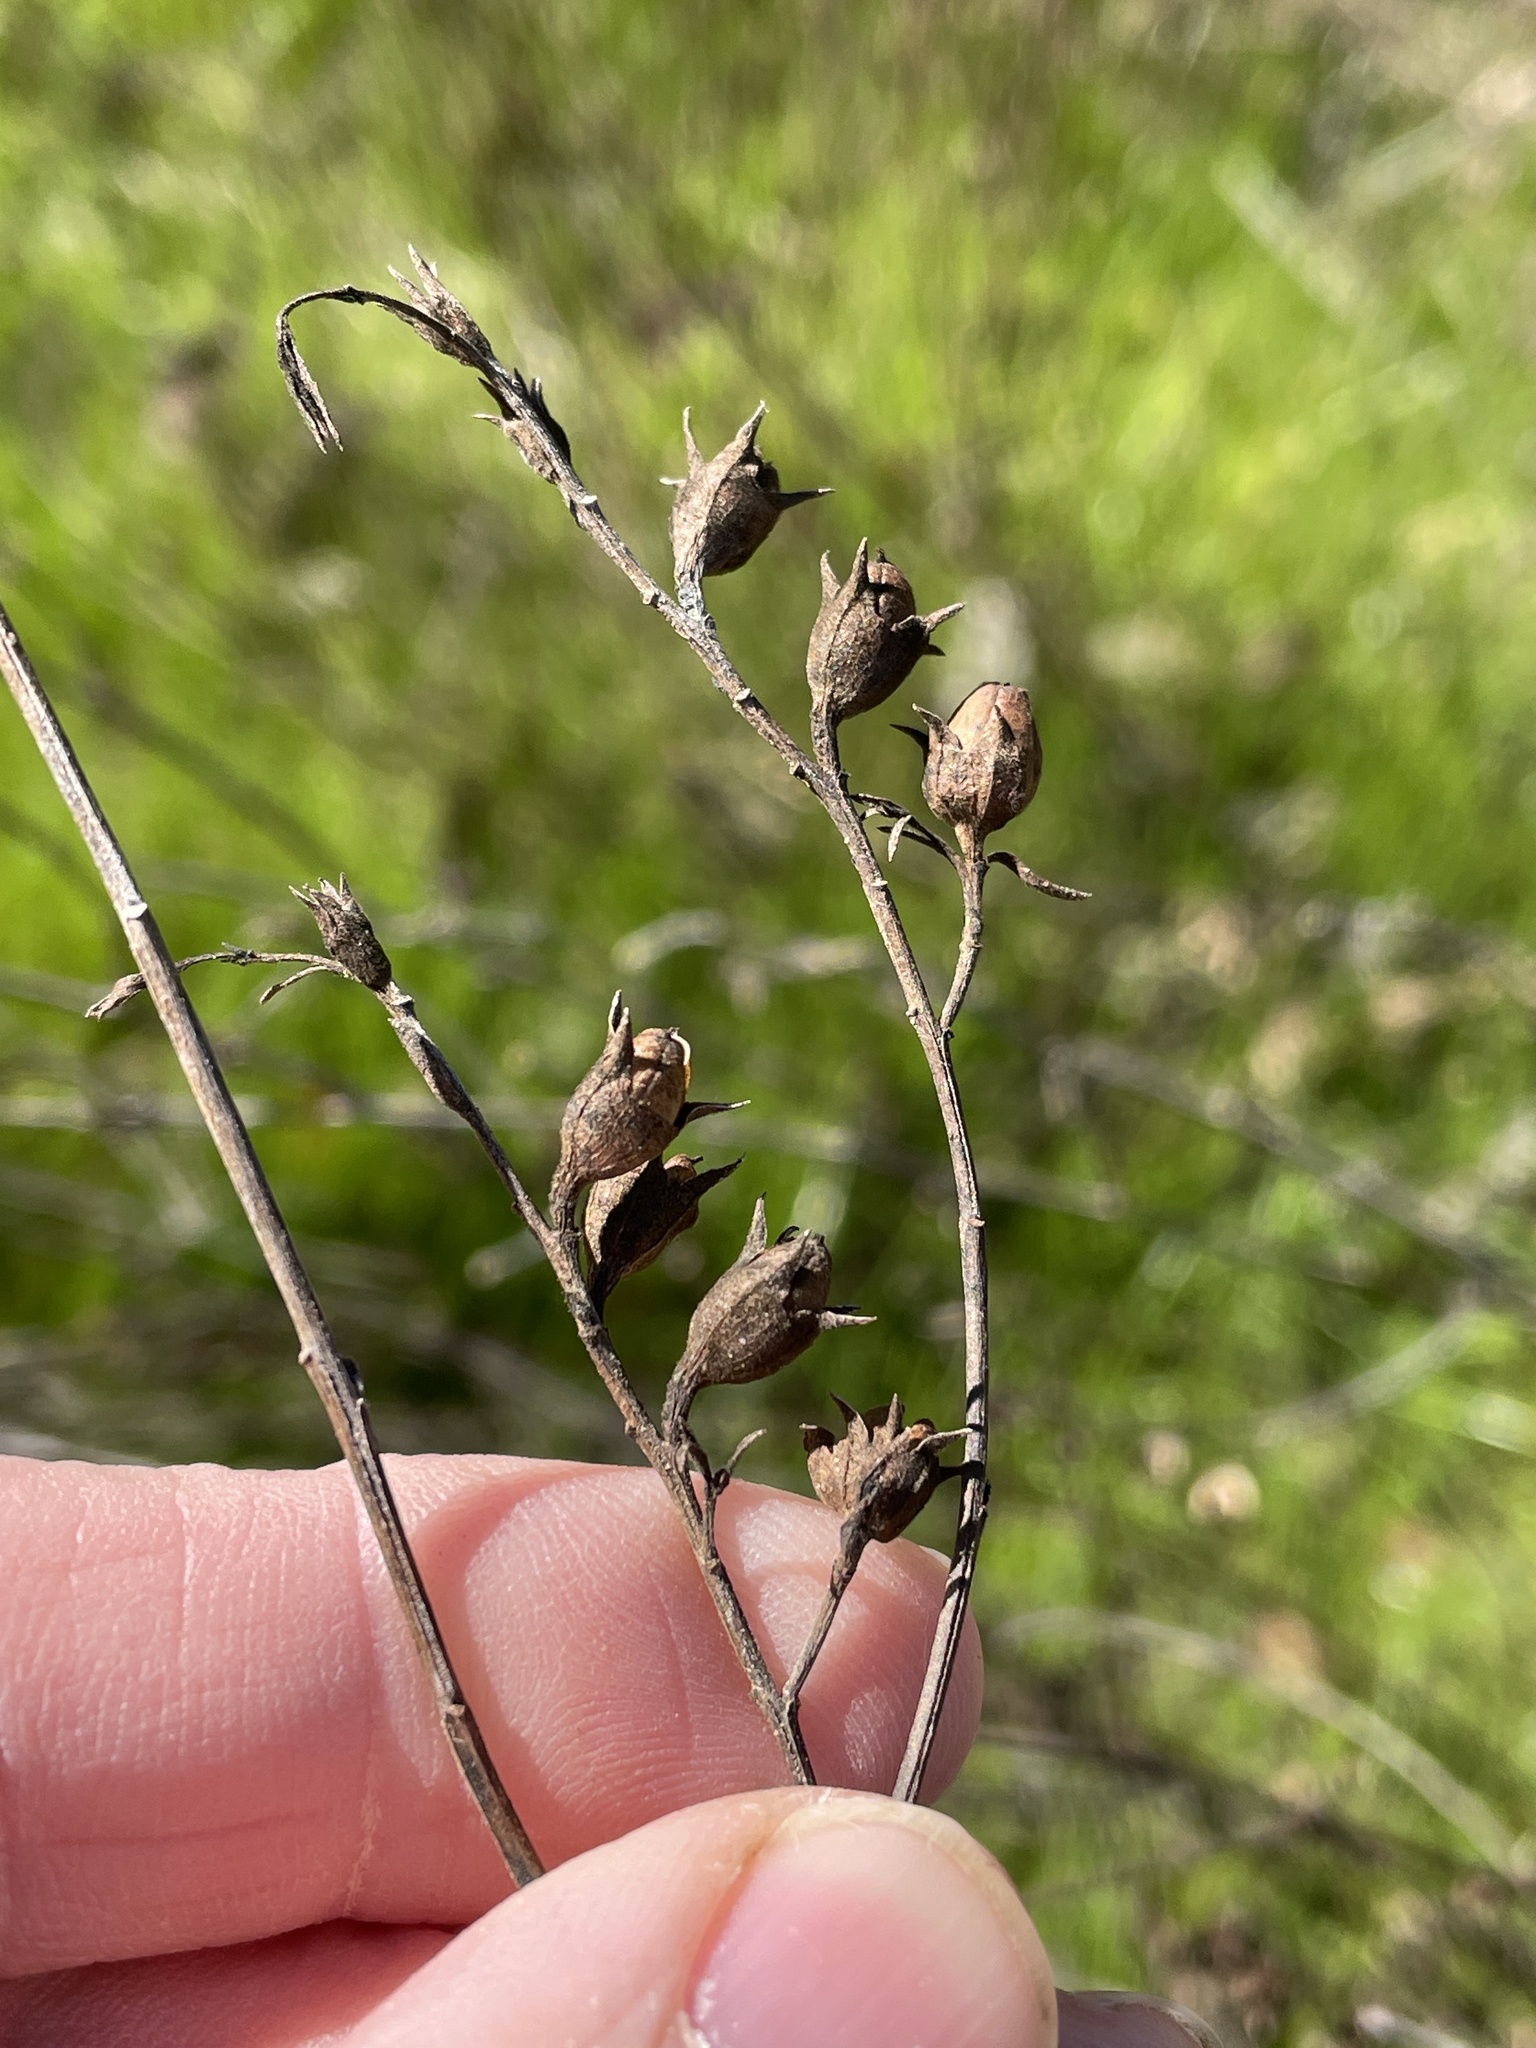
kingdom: Plantae
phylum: Tracheophyta
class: Magnoliopsida
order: Lamiales
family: Orobanchaceae
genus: Agalinis
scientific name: Agalinis heterophylla
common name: Prairie agalinis
